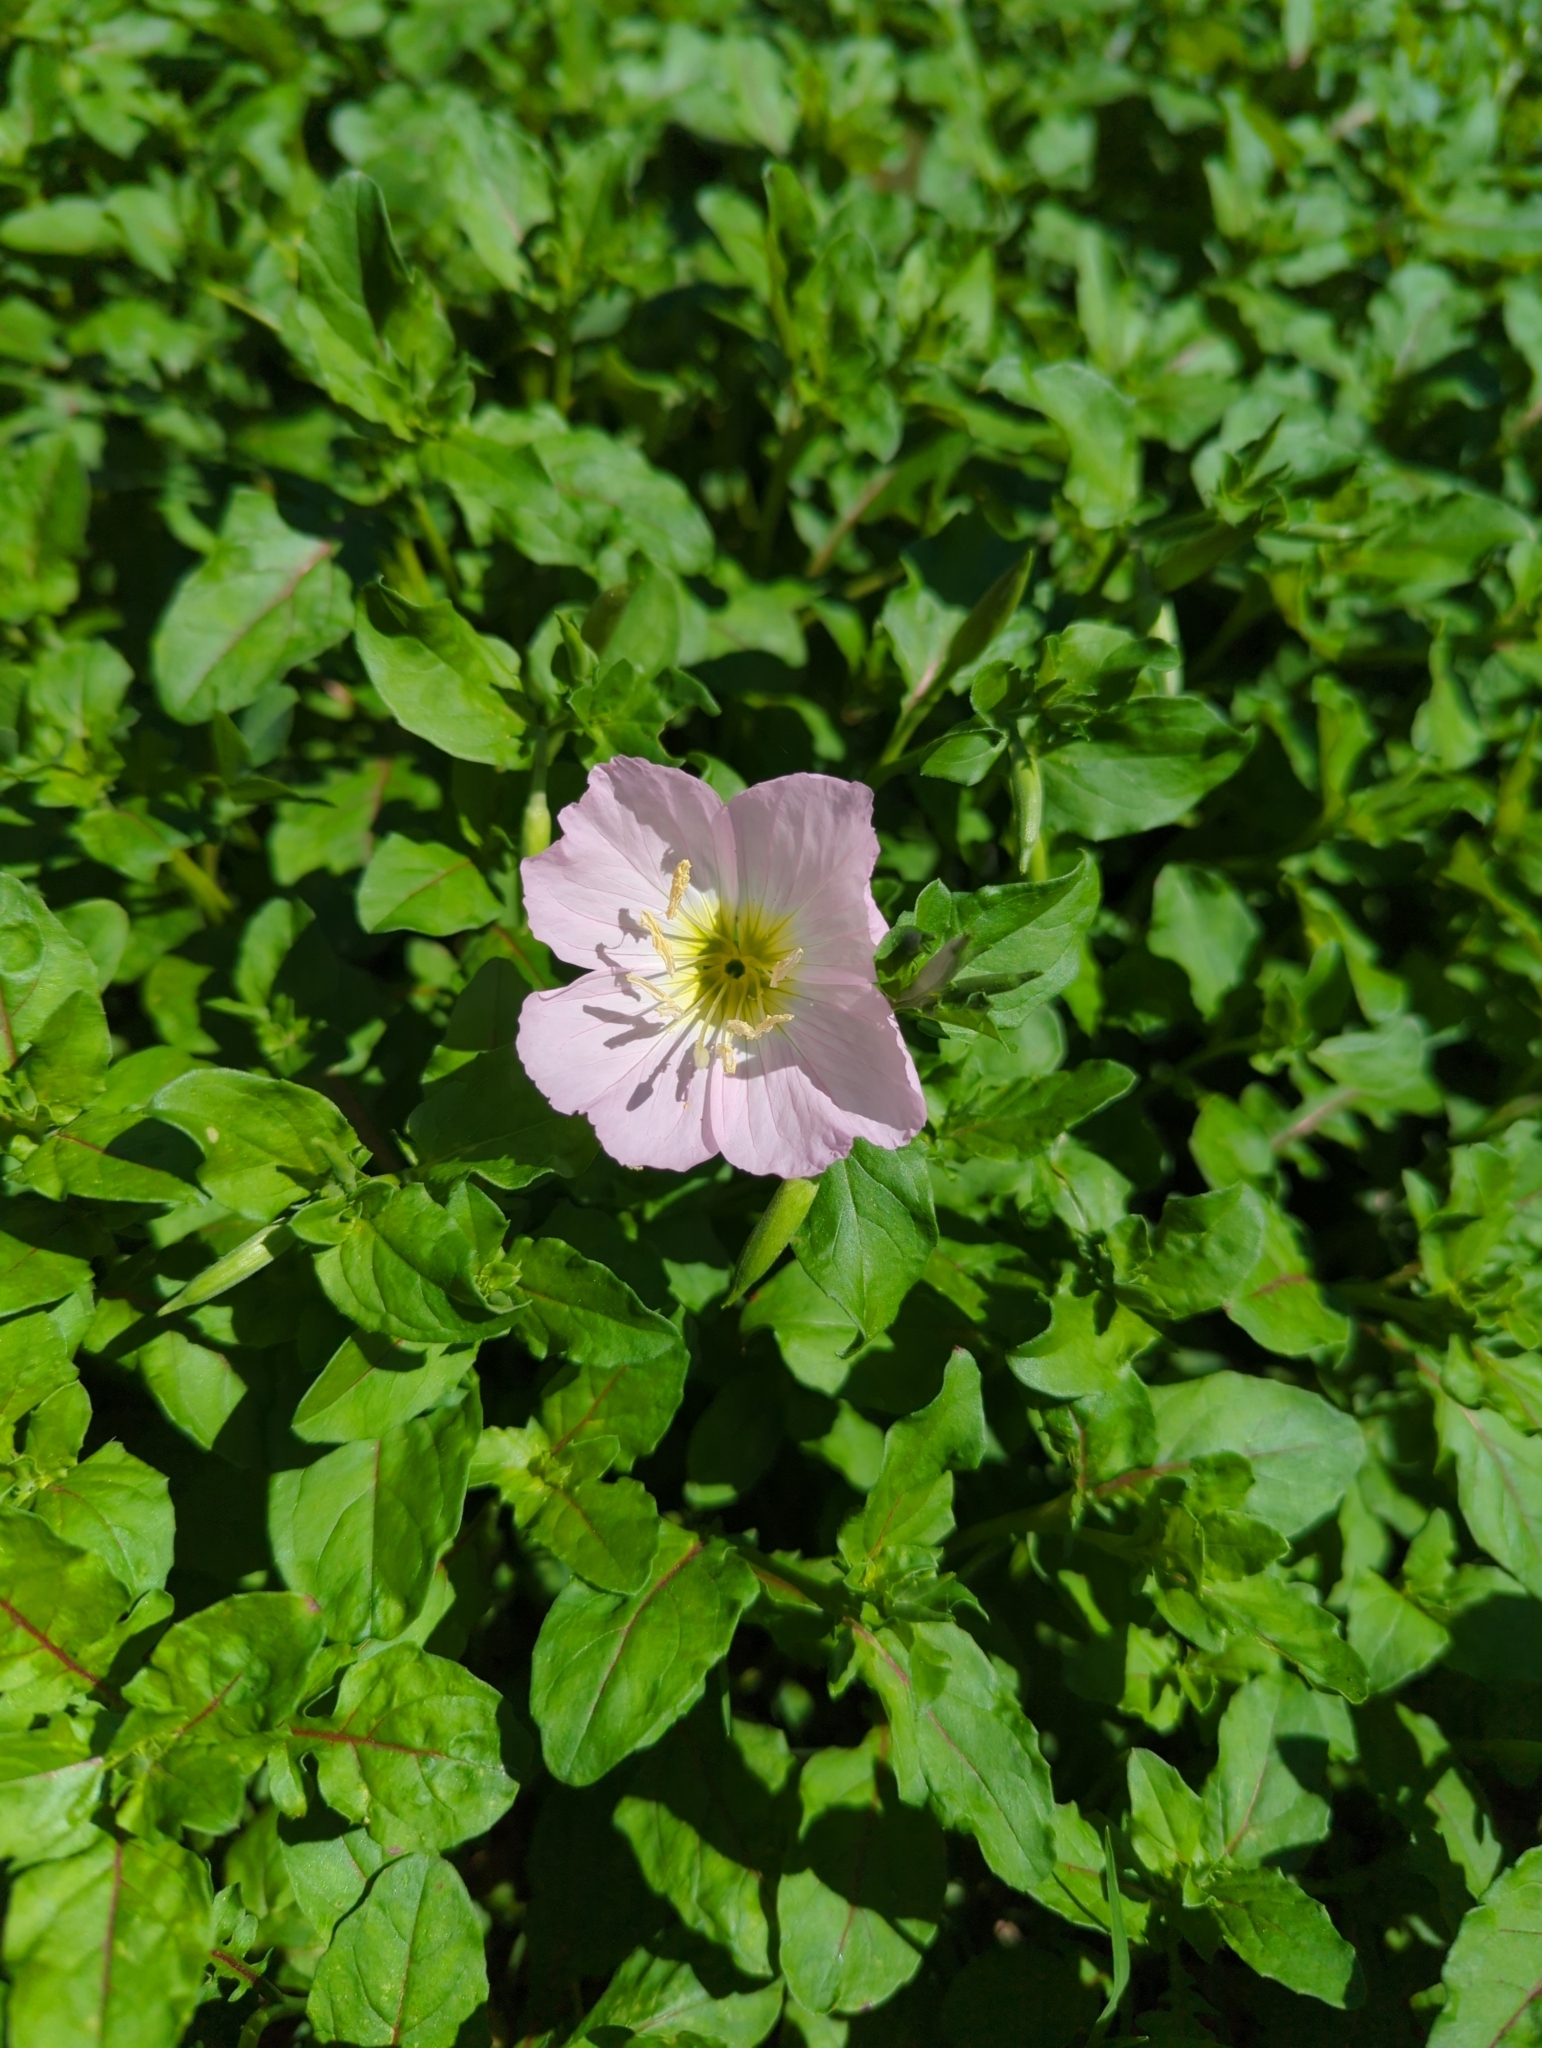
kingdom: Plantae
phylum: Tracheophyta
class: Magnoliopsida
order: Myrtales
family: Onagraceae
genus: Oenothera
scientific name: Oenothera speciosa
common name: White evening-primrose
